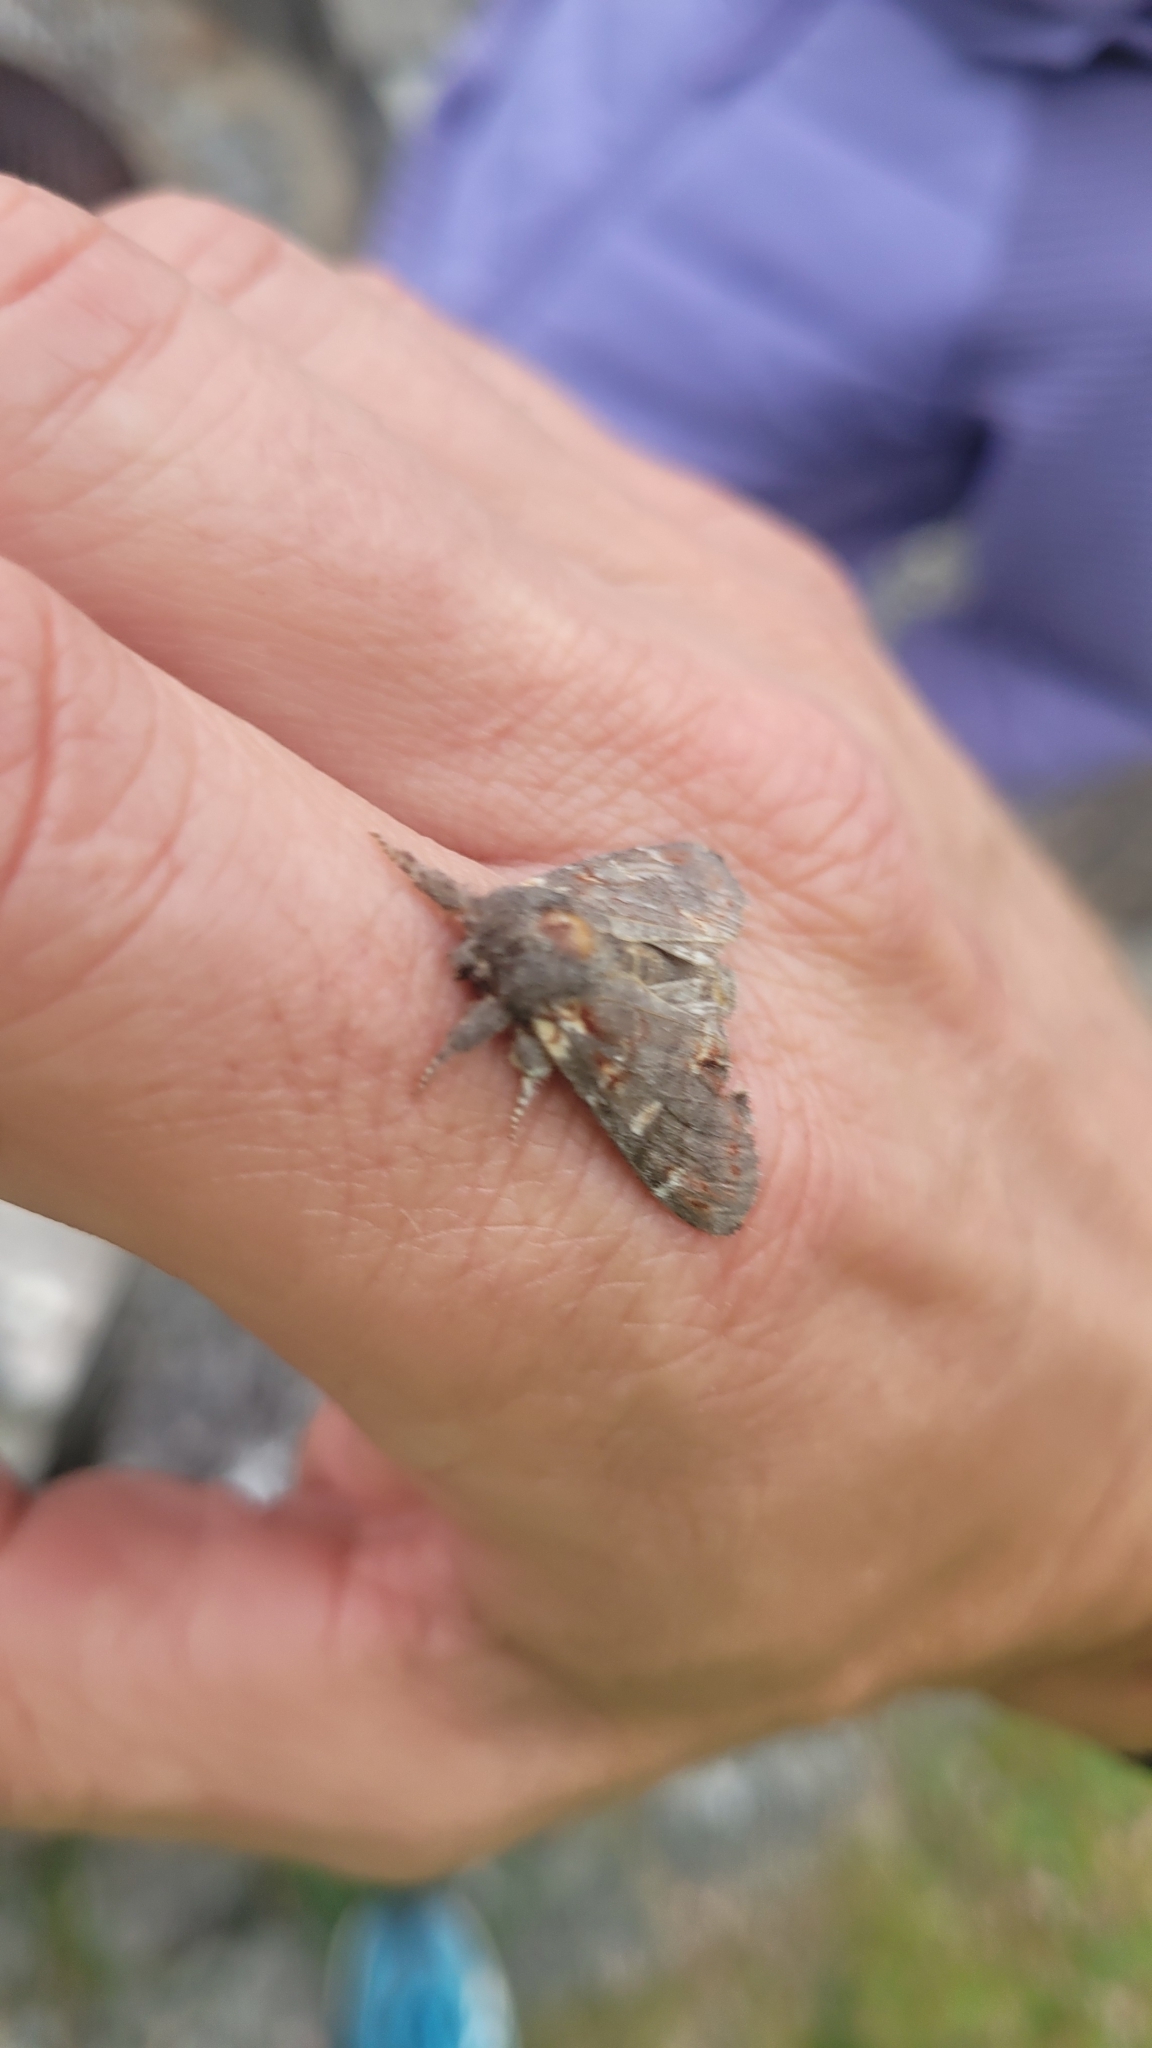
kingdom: Animalia
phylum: Arthropoda
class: Insecta
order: Lepidoptera
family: Notodontidae
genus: Notodonta
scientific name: Notodonta dromedarius
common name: Iron prominent
